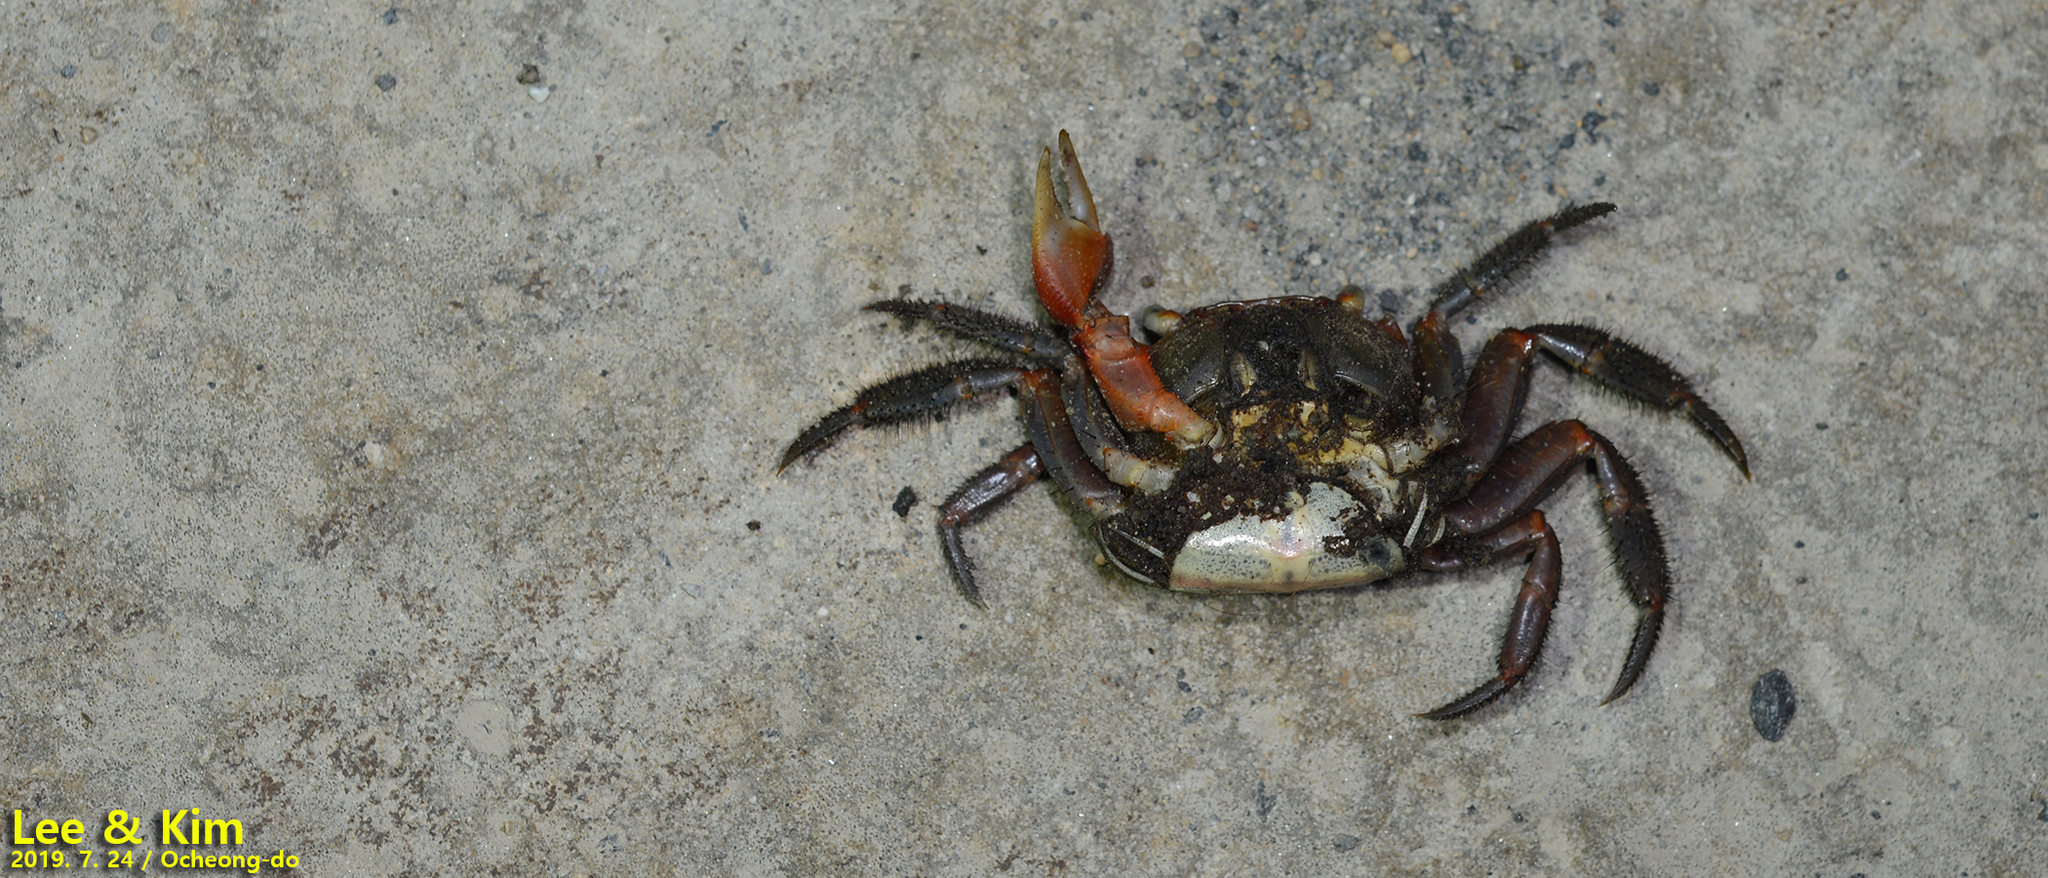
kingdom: Animalia
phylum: Arthropoda
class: Malacostraca
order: Decapoda
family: Sesarmidae
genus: Chiromantes
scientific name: Chiromantes haematocheir
